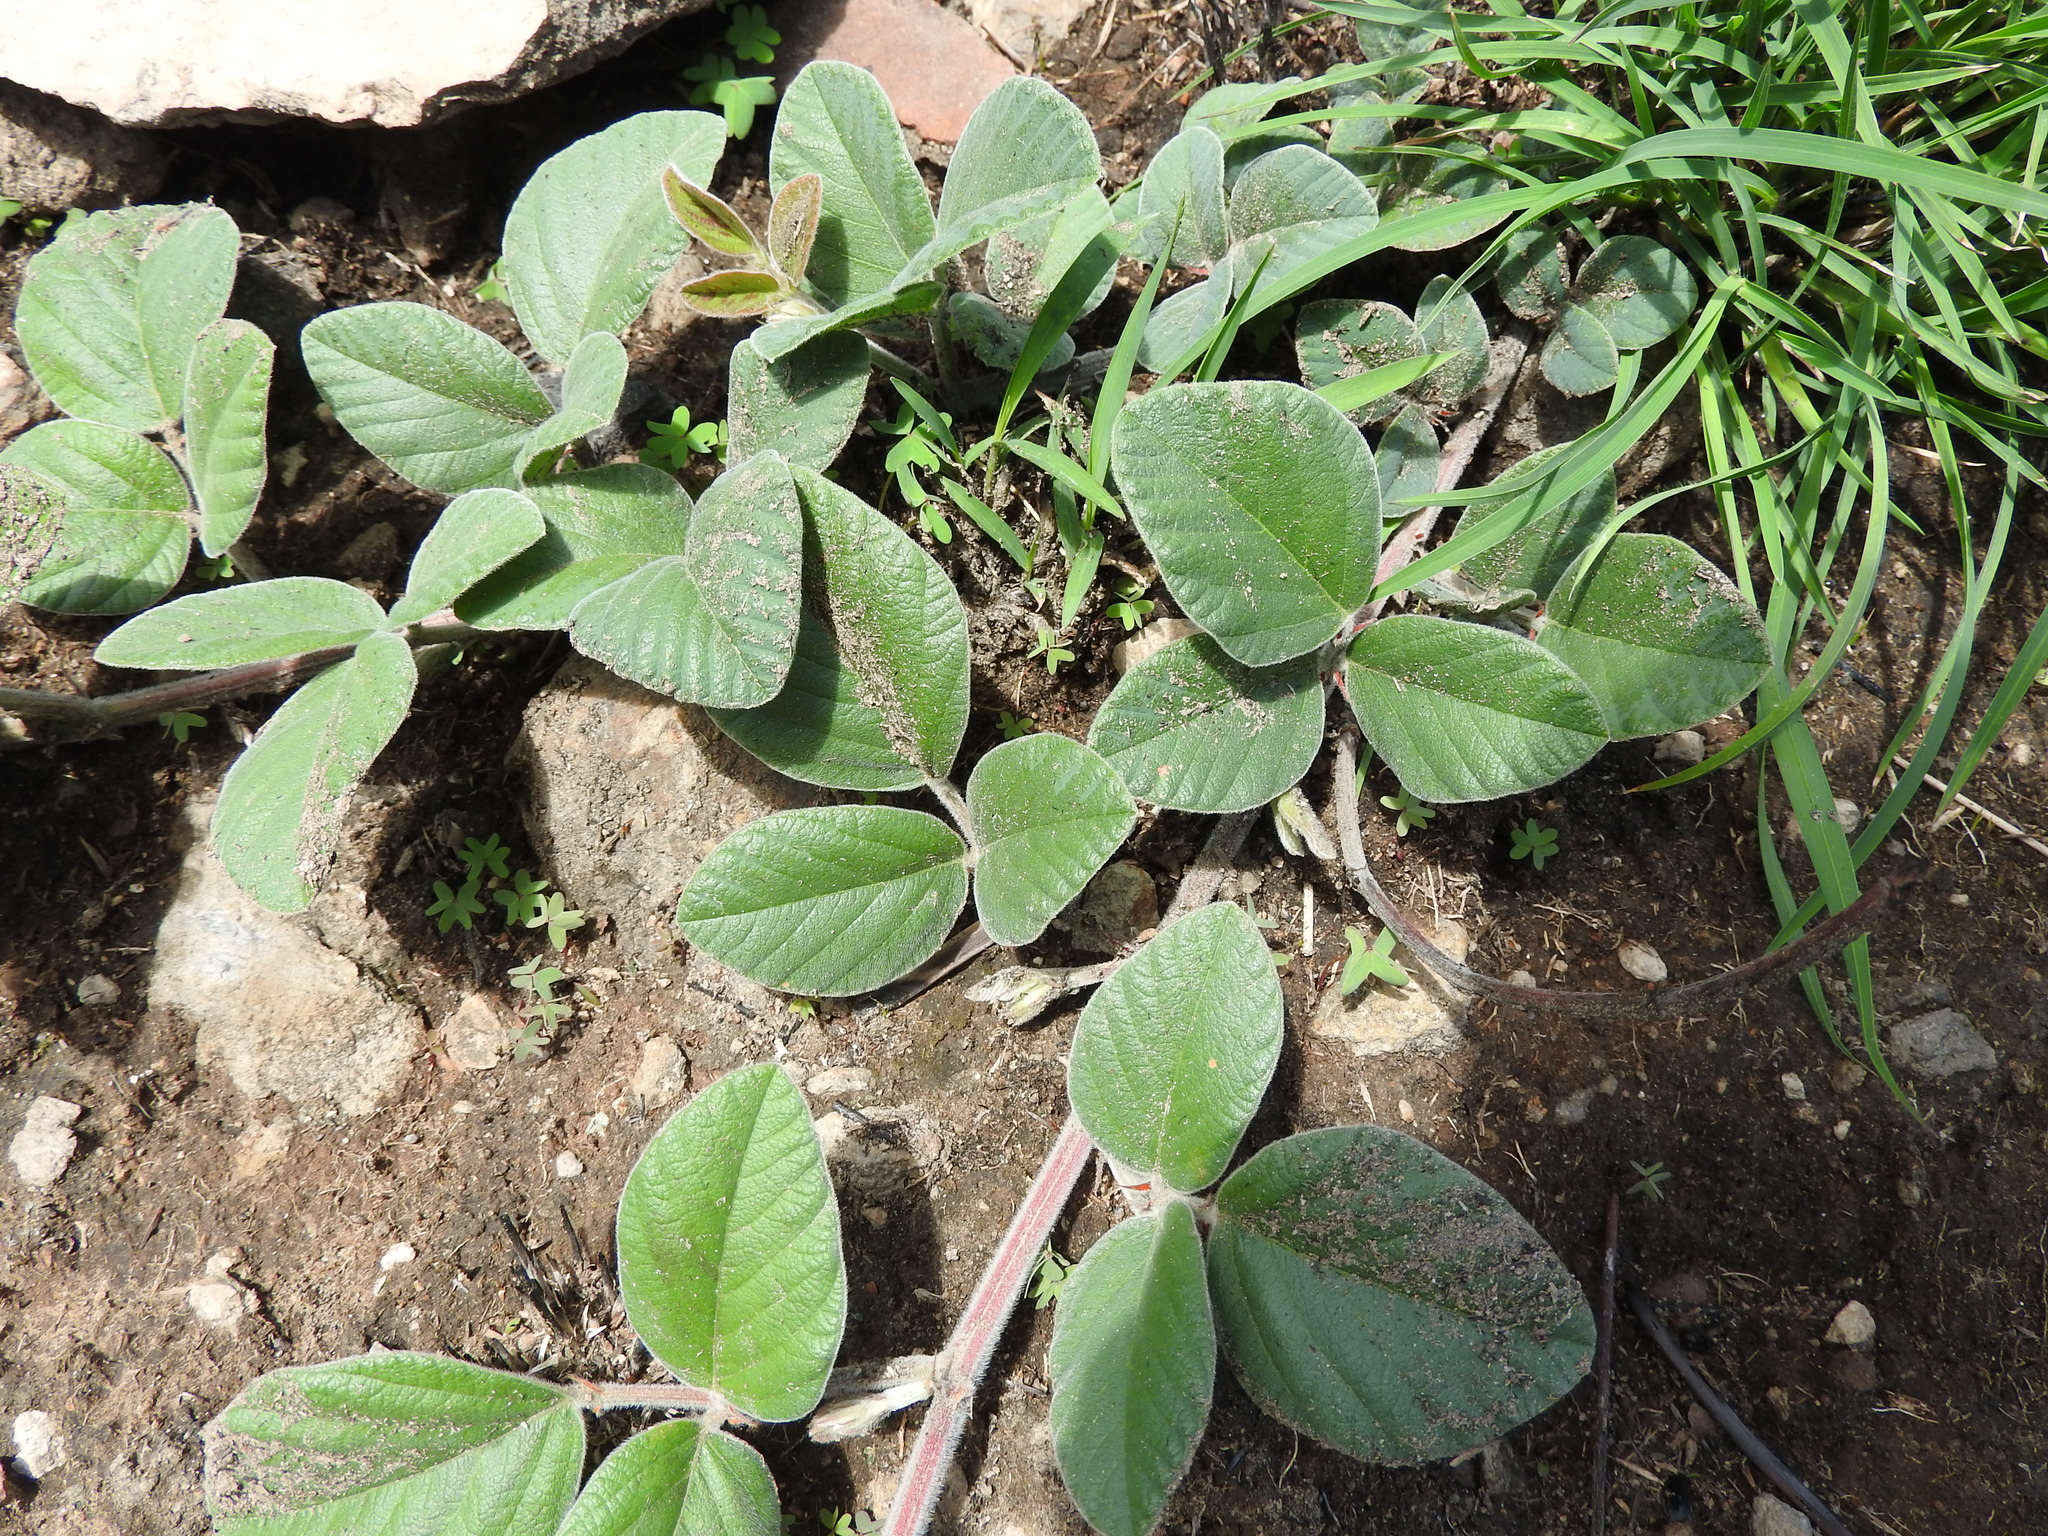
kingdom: Plantae
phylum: Tracheophyta
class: Magnoliopsida
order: Fabales
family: Fabaceae
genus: Macroptilium
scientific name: Macroptilium gibbosifolium
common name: Variableleaf bushbean
